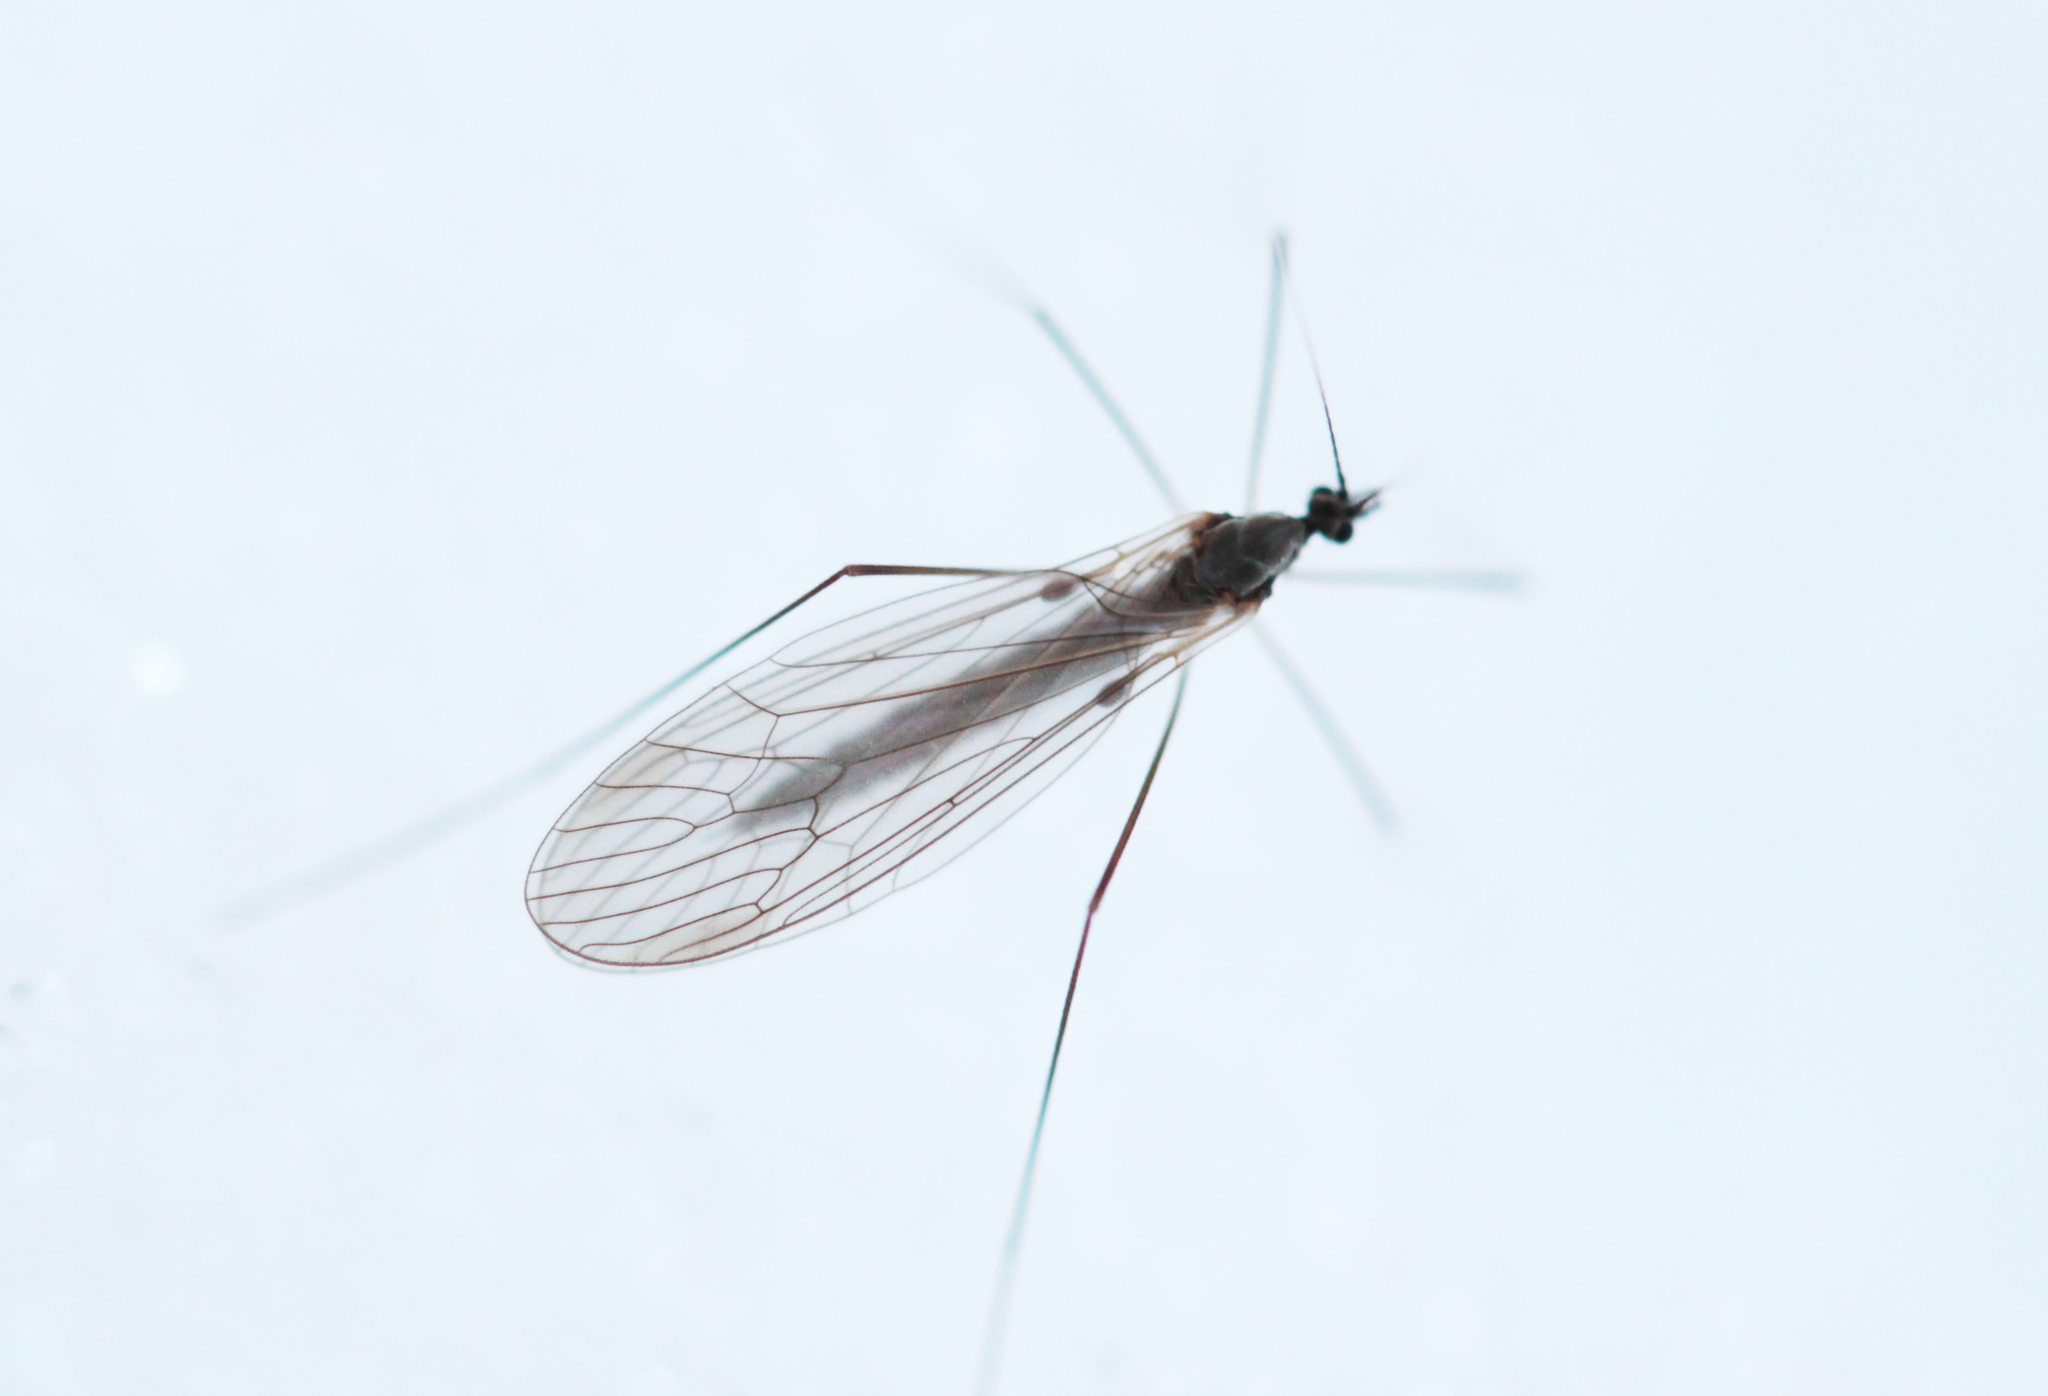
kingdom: Animalia
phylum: Arthropoda
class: Insecta
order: Diptera
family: Trichoceridae
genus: Trichocera
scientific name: Trichocera
